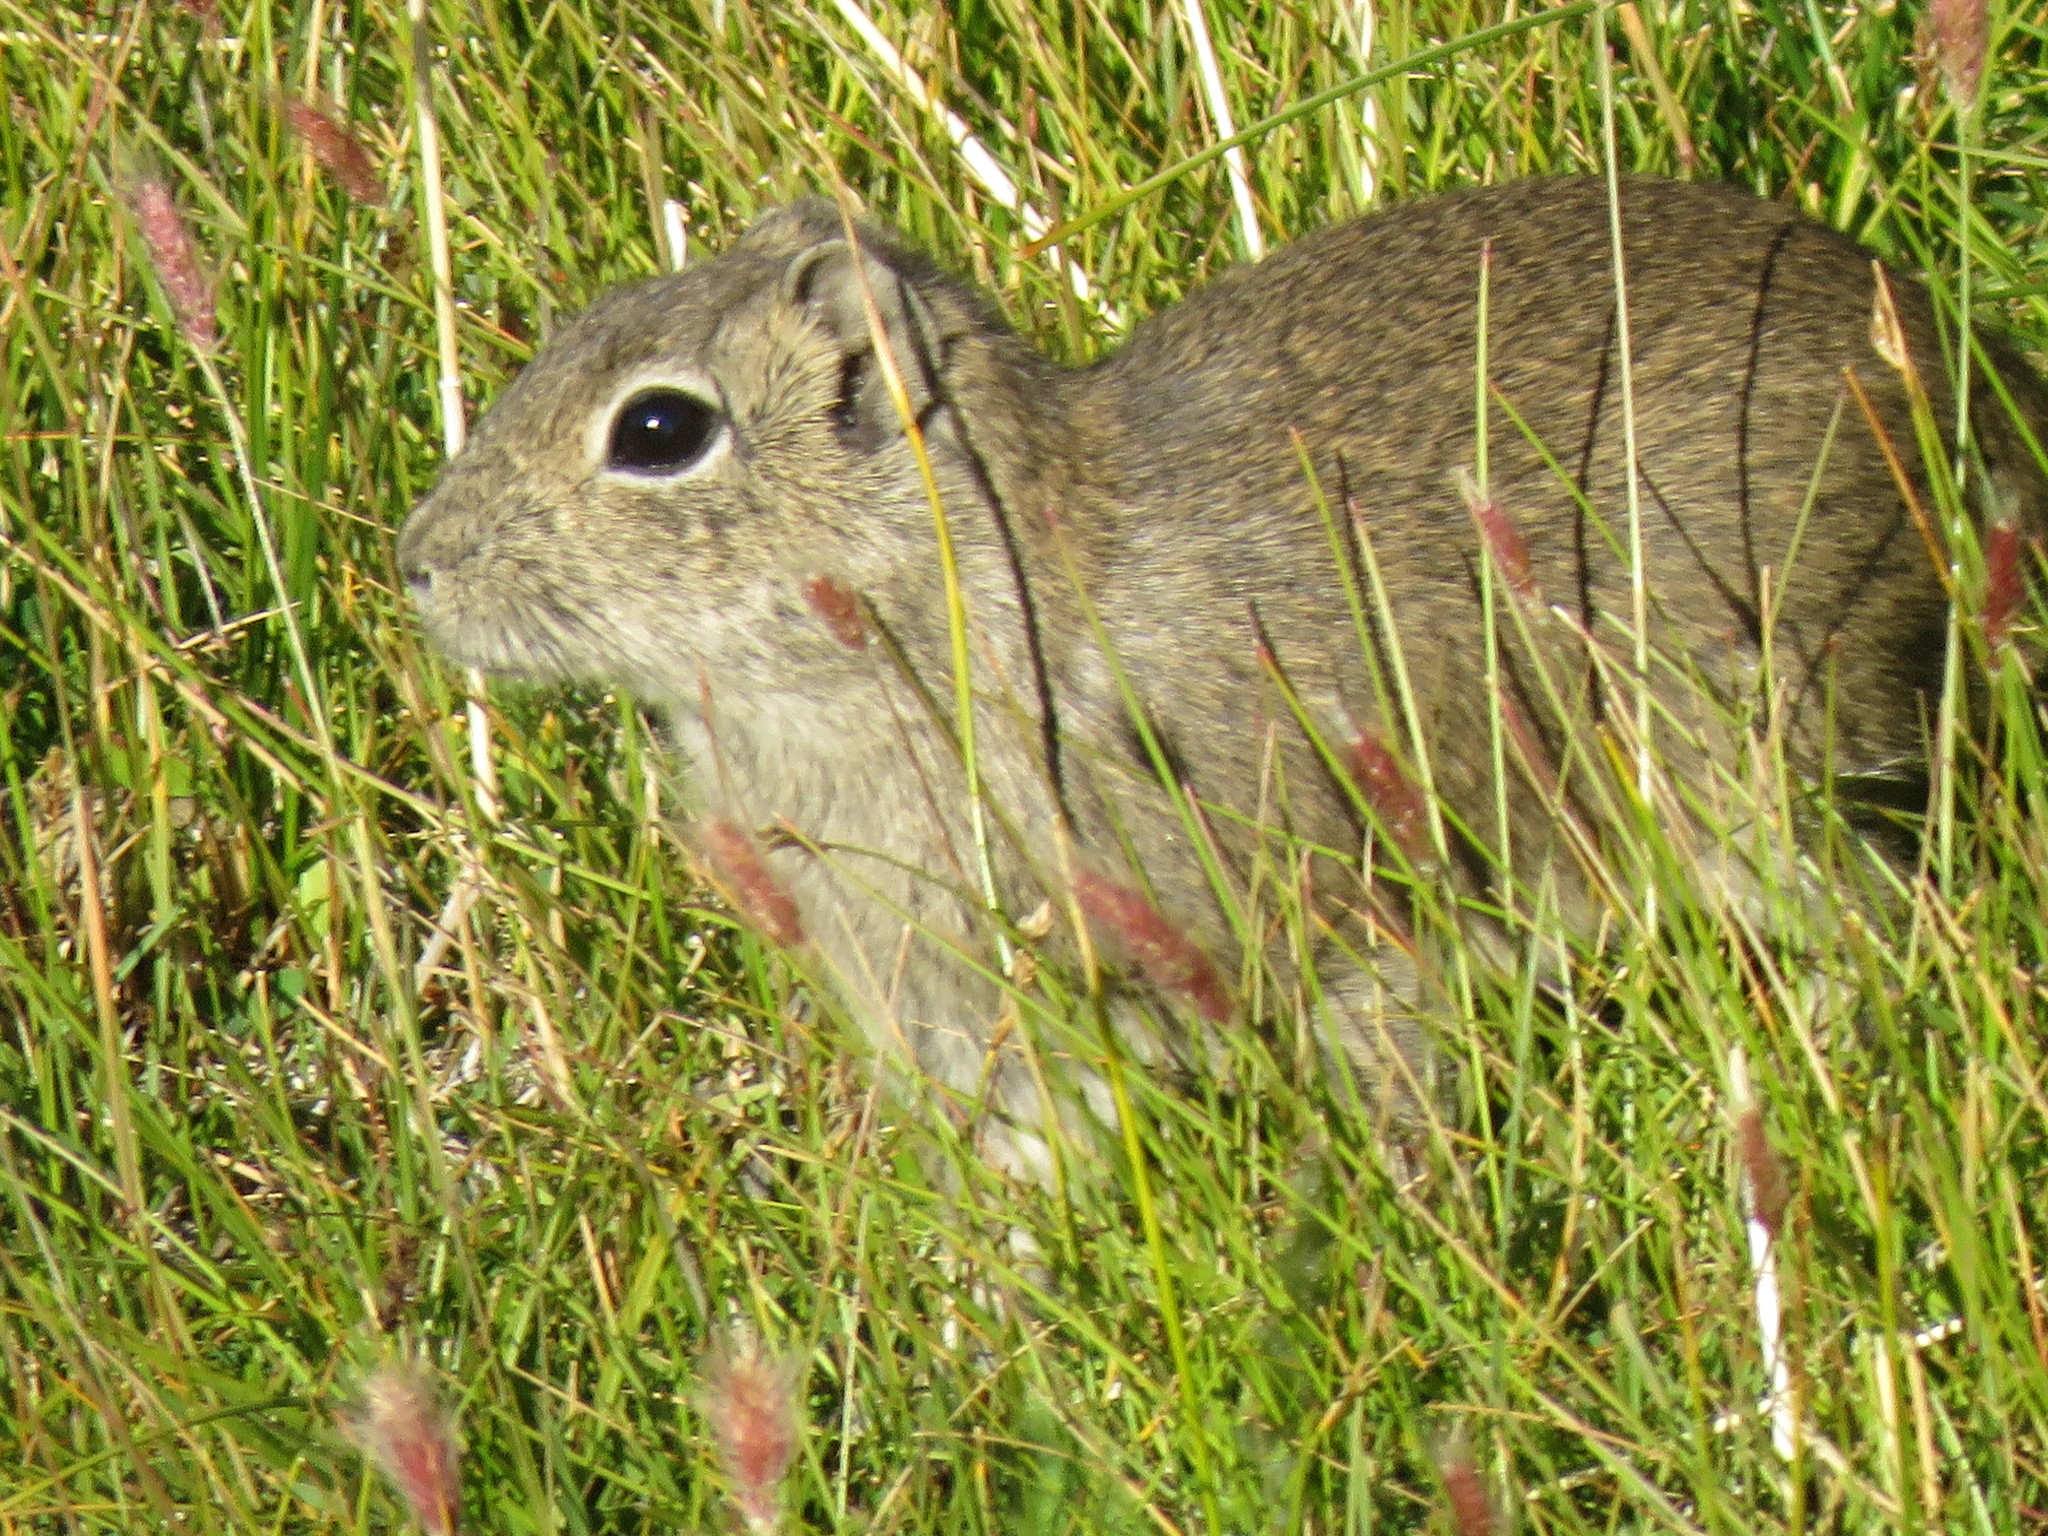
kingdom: Animalia
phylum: Chordata
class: Mammalia
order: Rodentia
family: Caviidae
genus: Microcavia
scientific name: Microcavia australis
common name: Southern mountain cavy
